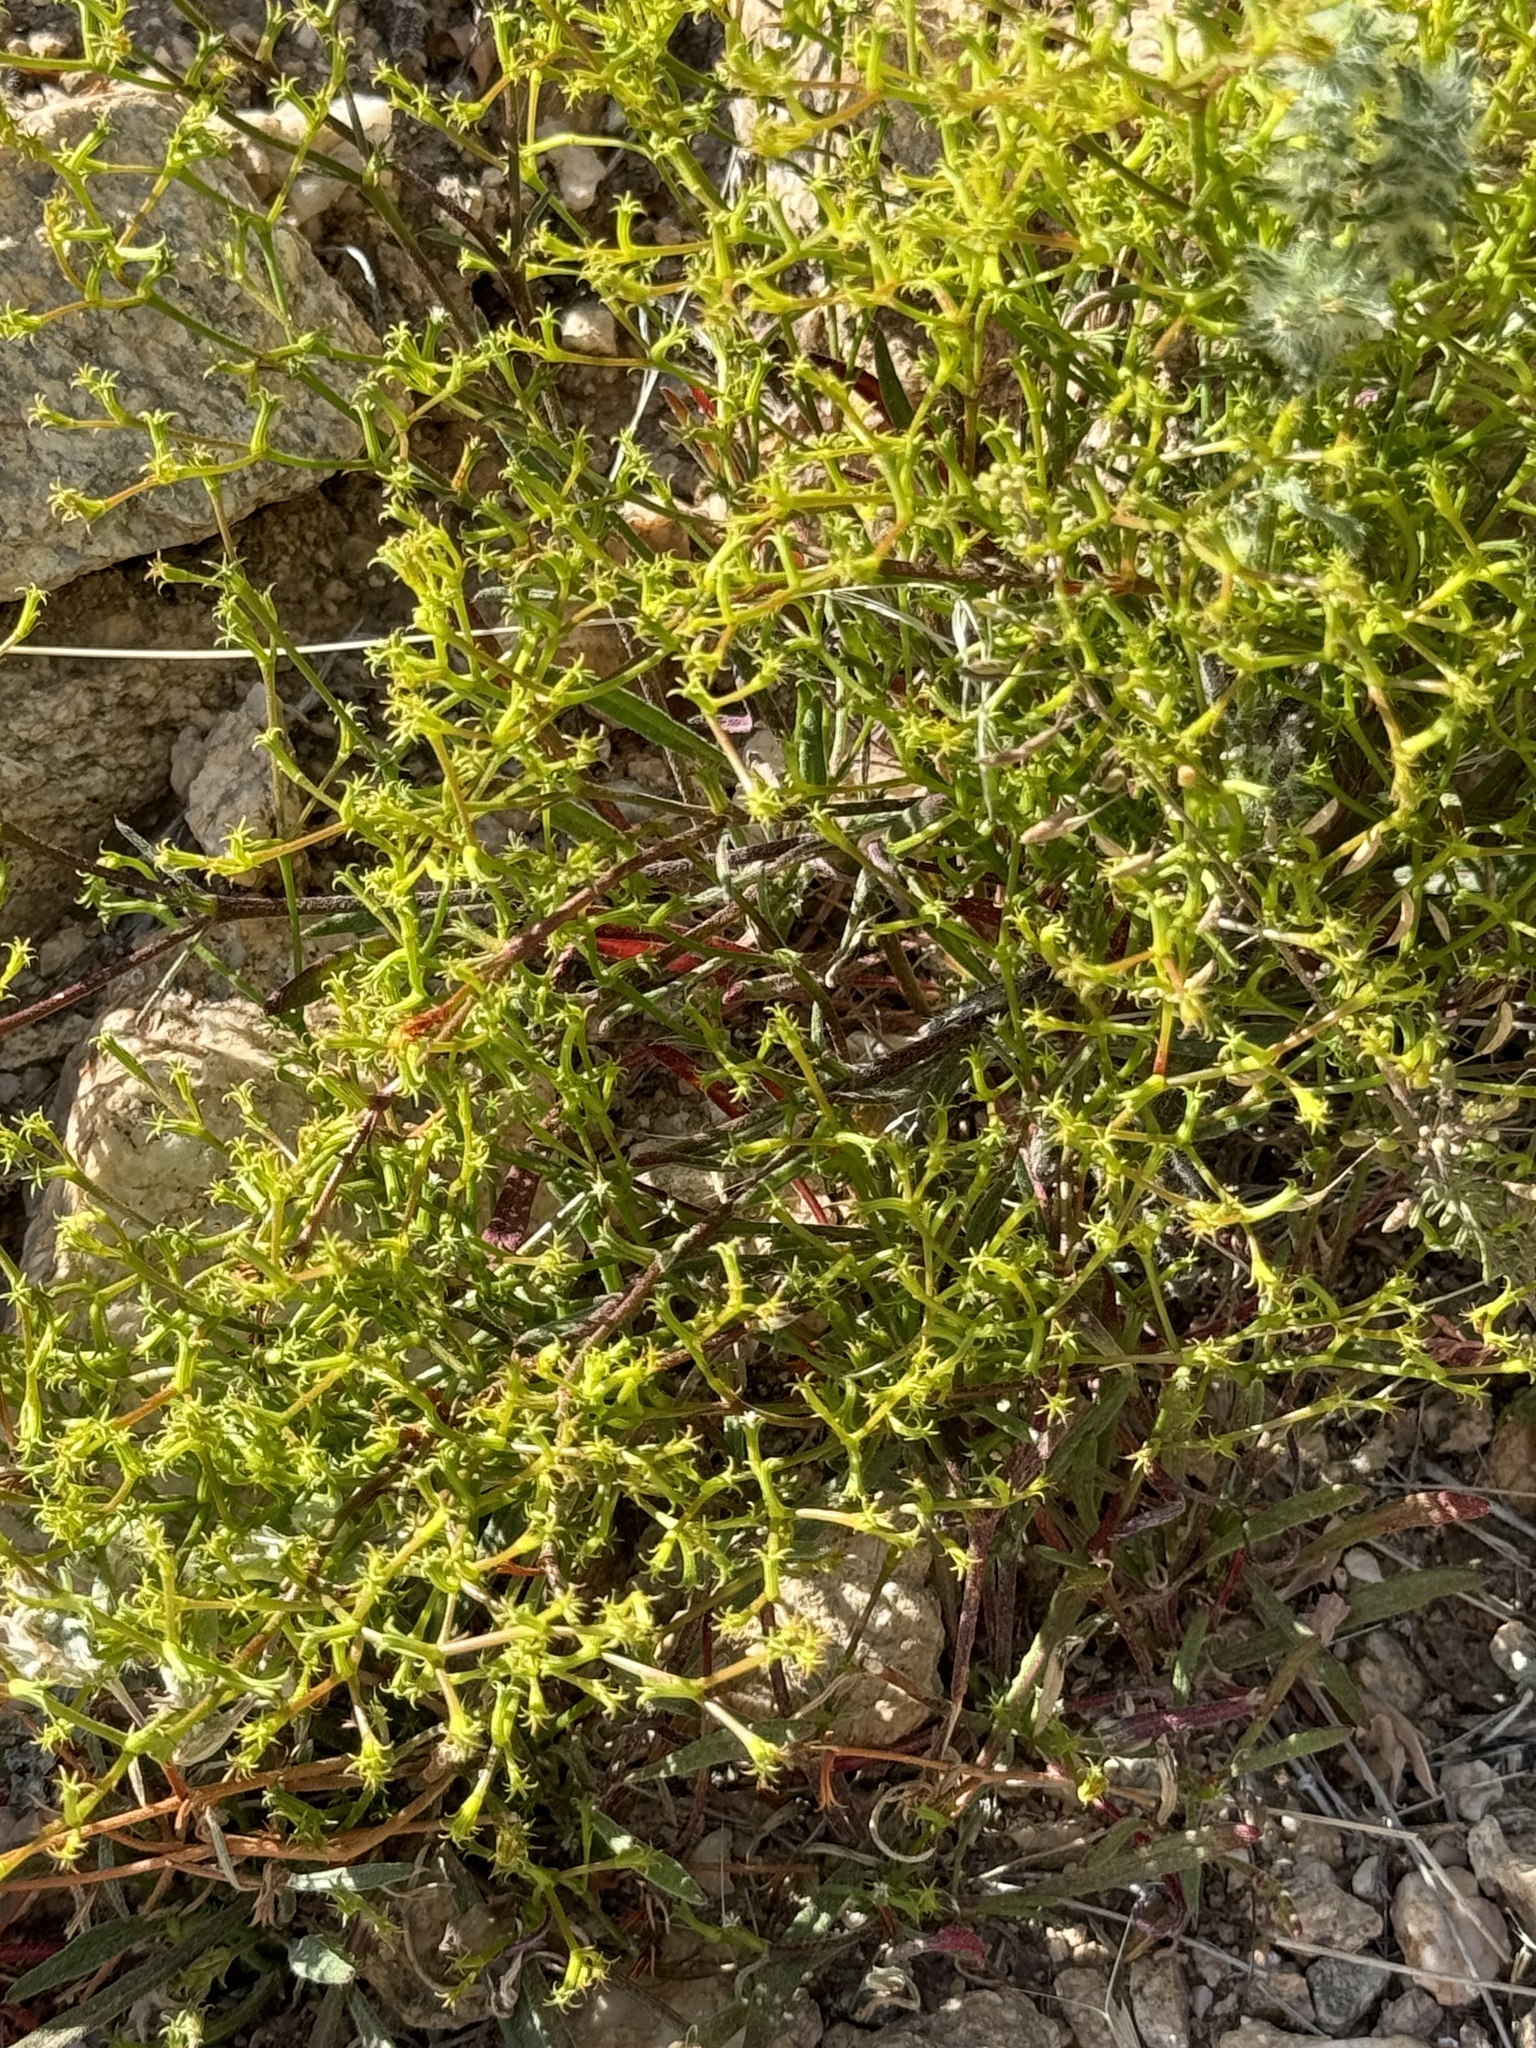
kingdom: Plantae
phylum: Tracheophyta
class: Magnoliopsida
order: Caryophyllales
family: Polygonaceae
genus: Chorizanthe
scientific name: Chorizanthe brevicornu
